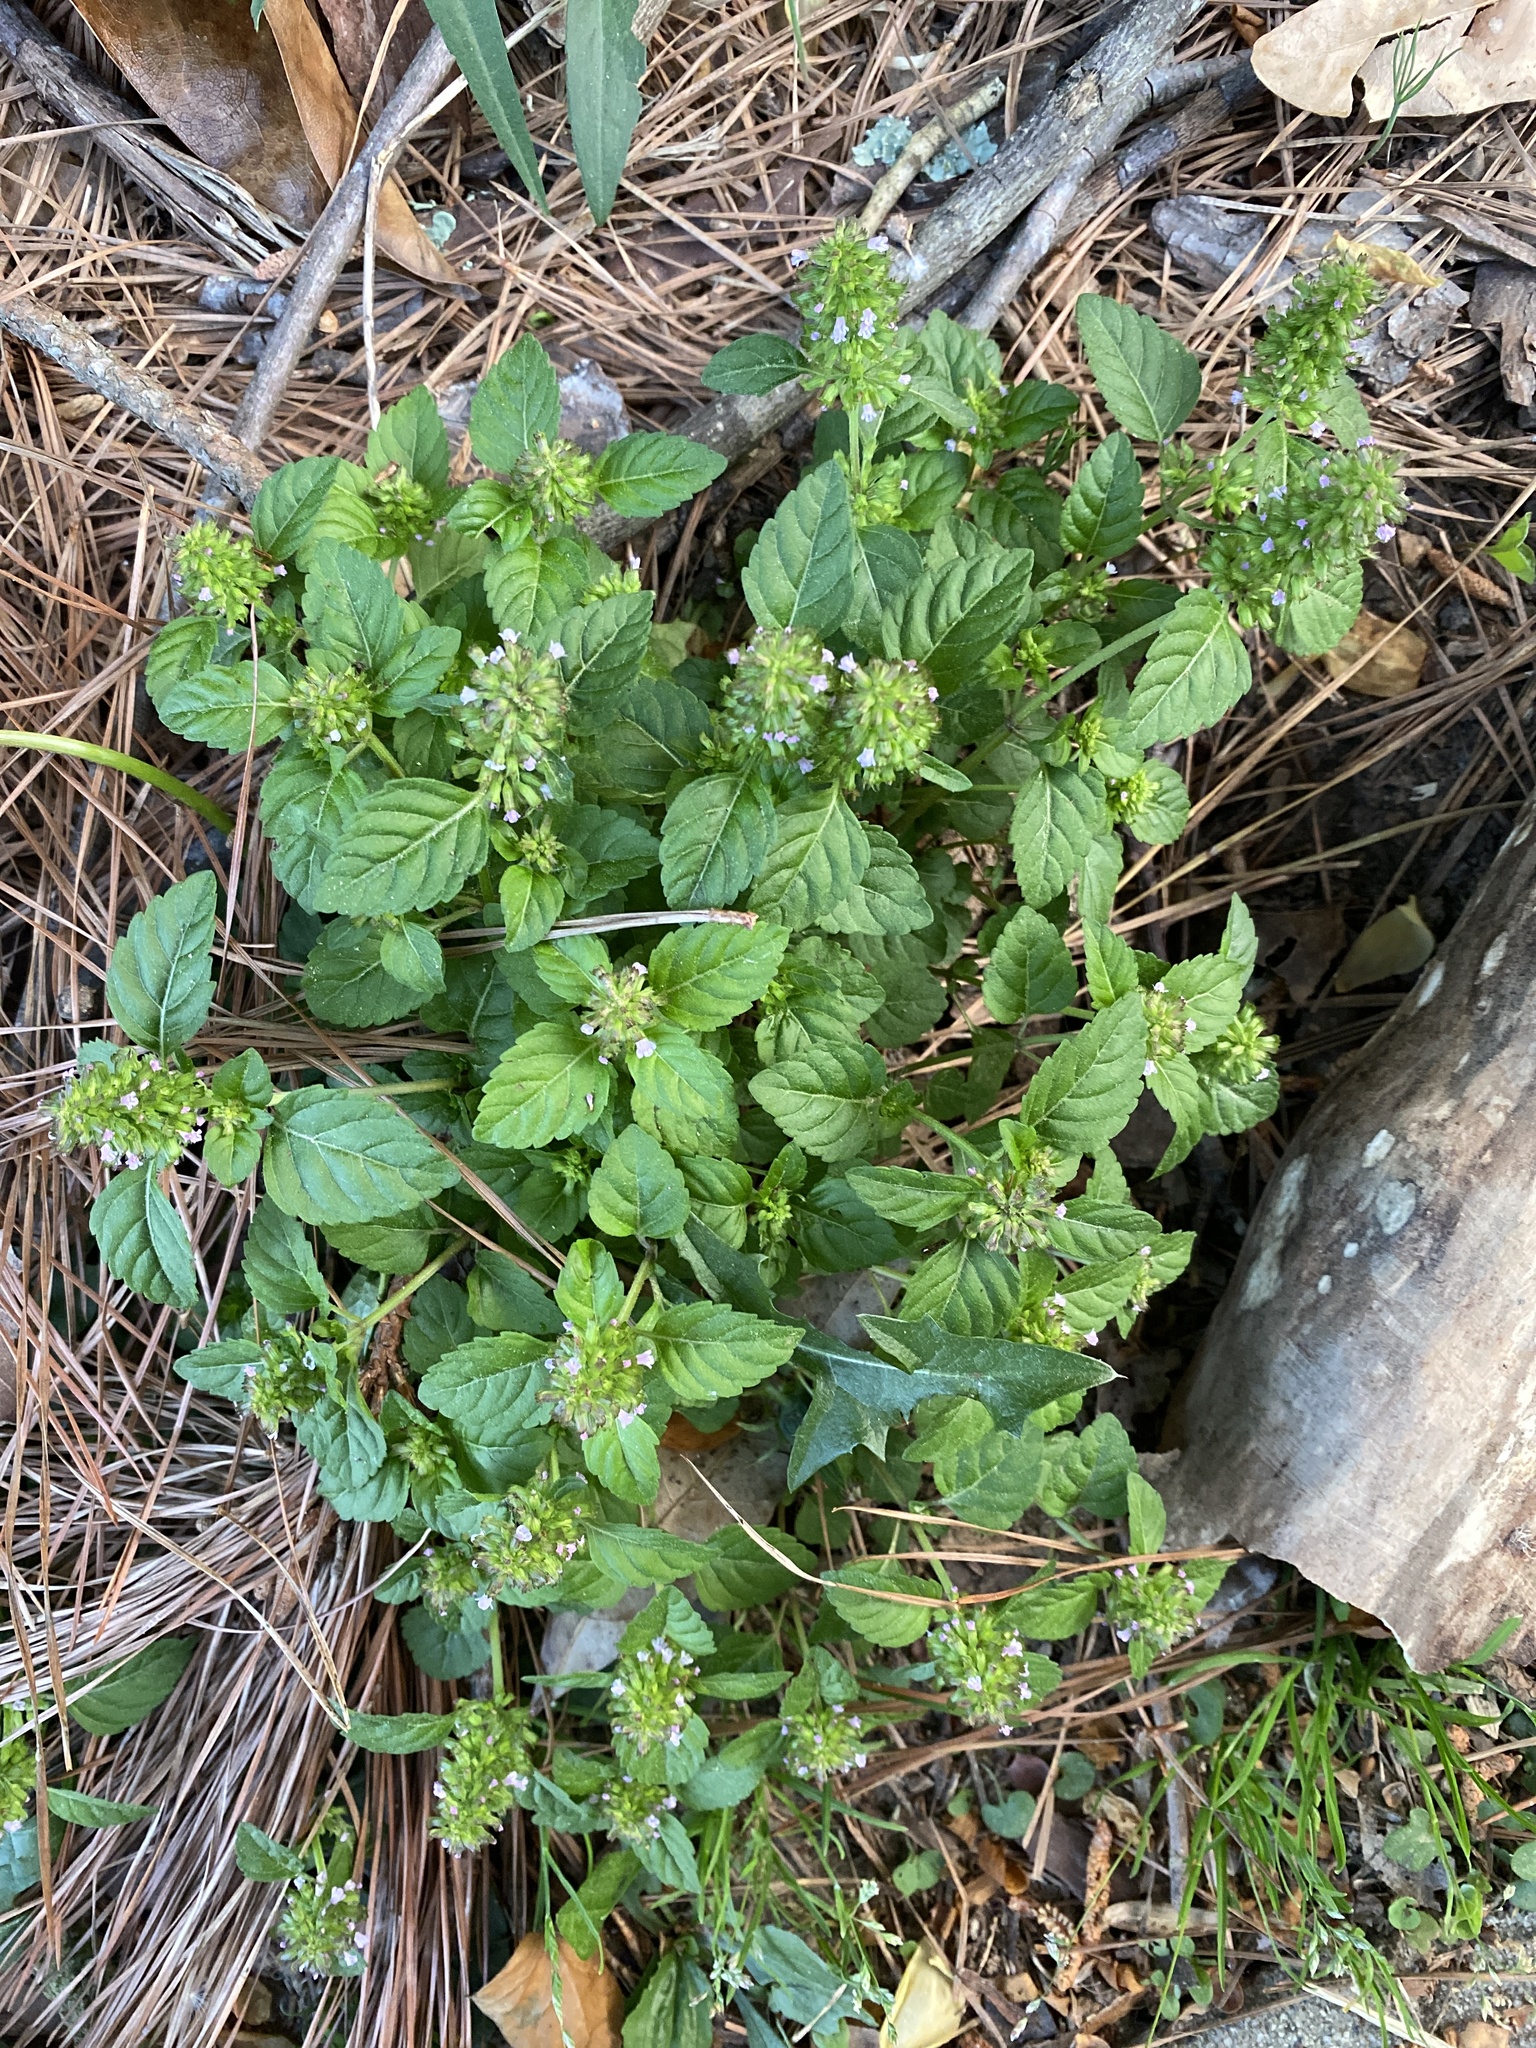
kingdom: Plantae
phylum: Tracheophyta
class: Magnoliopsida
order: Lamiales
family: Lamiaceae
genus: Clinopodium
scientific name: Clinopodium gracile
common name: Slender wild basil
